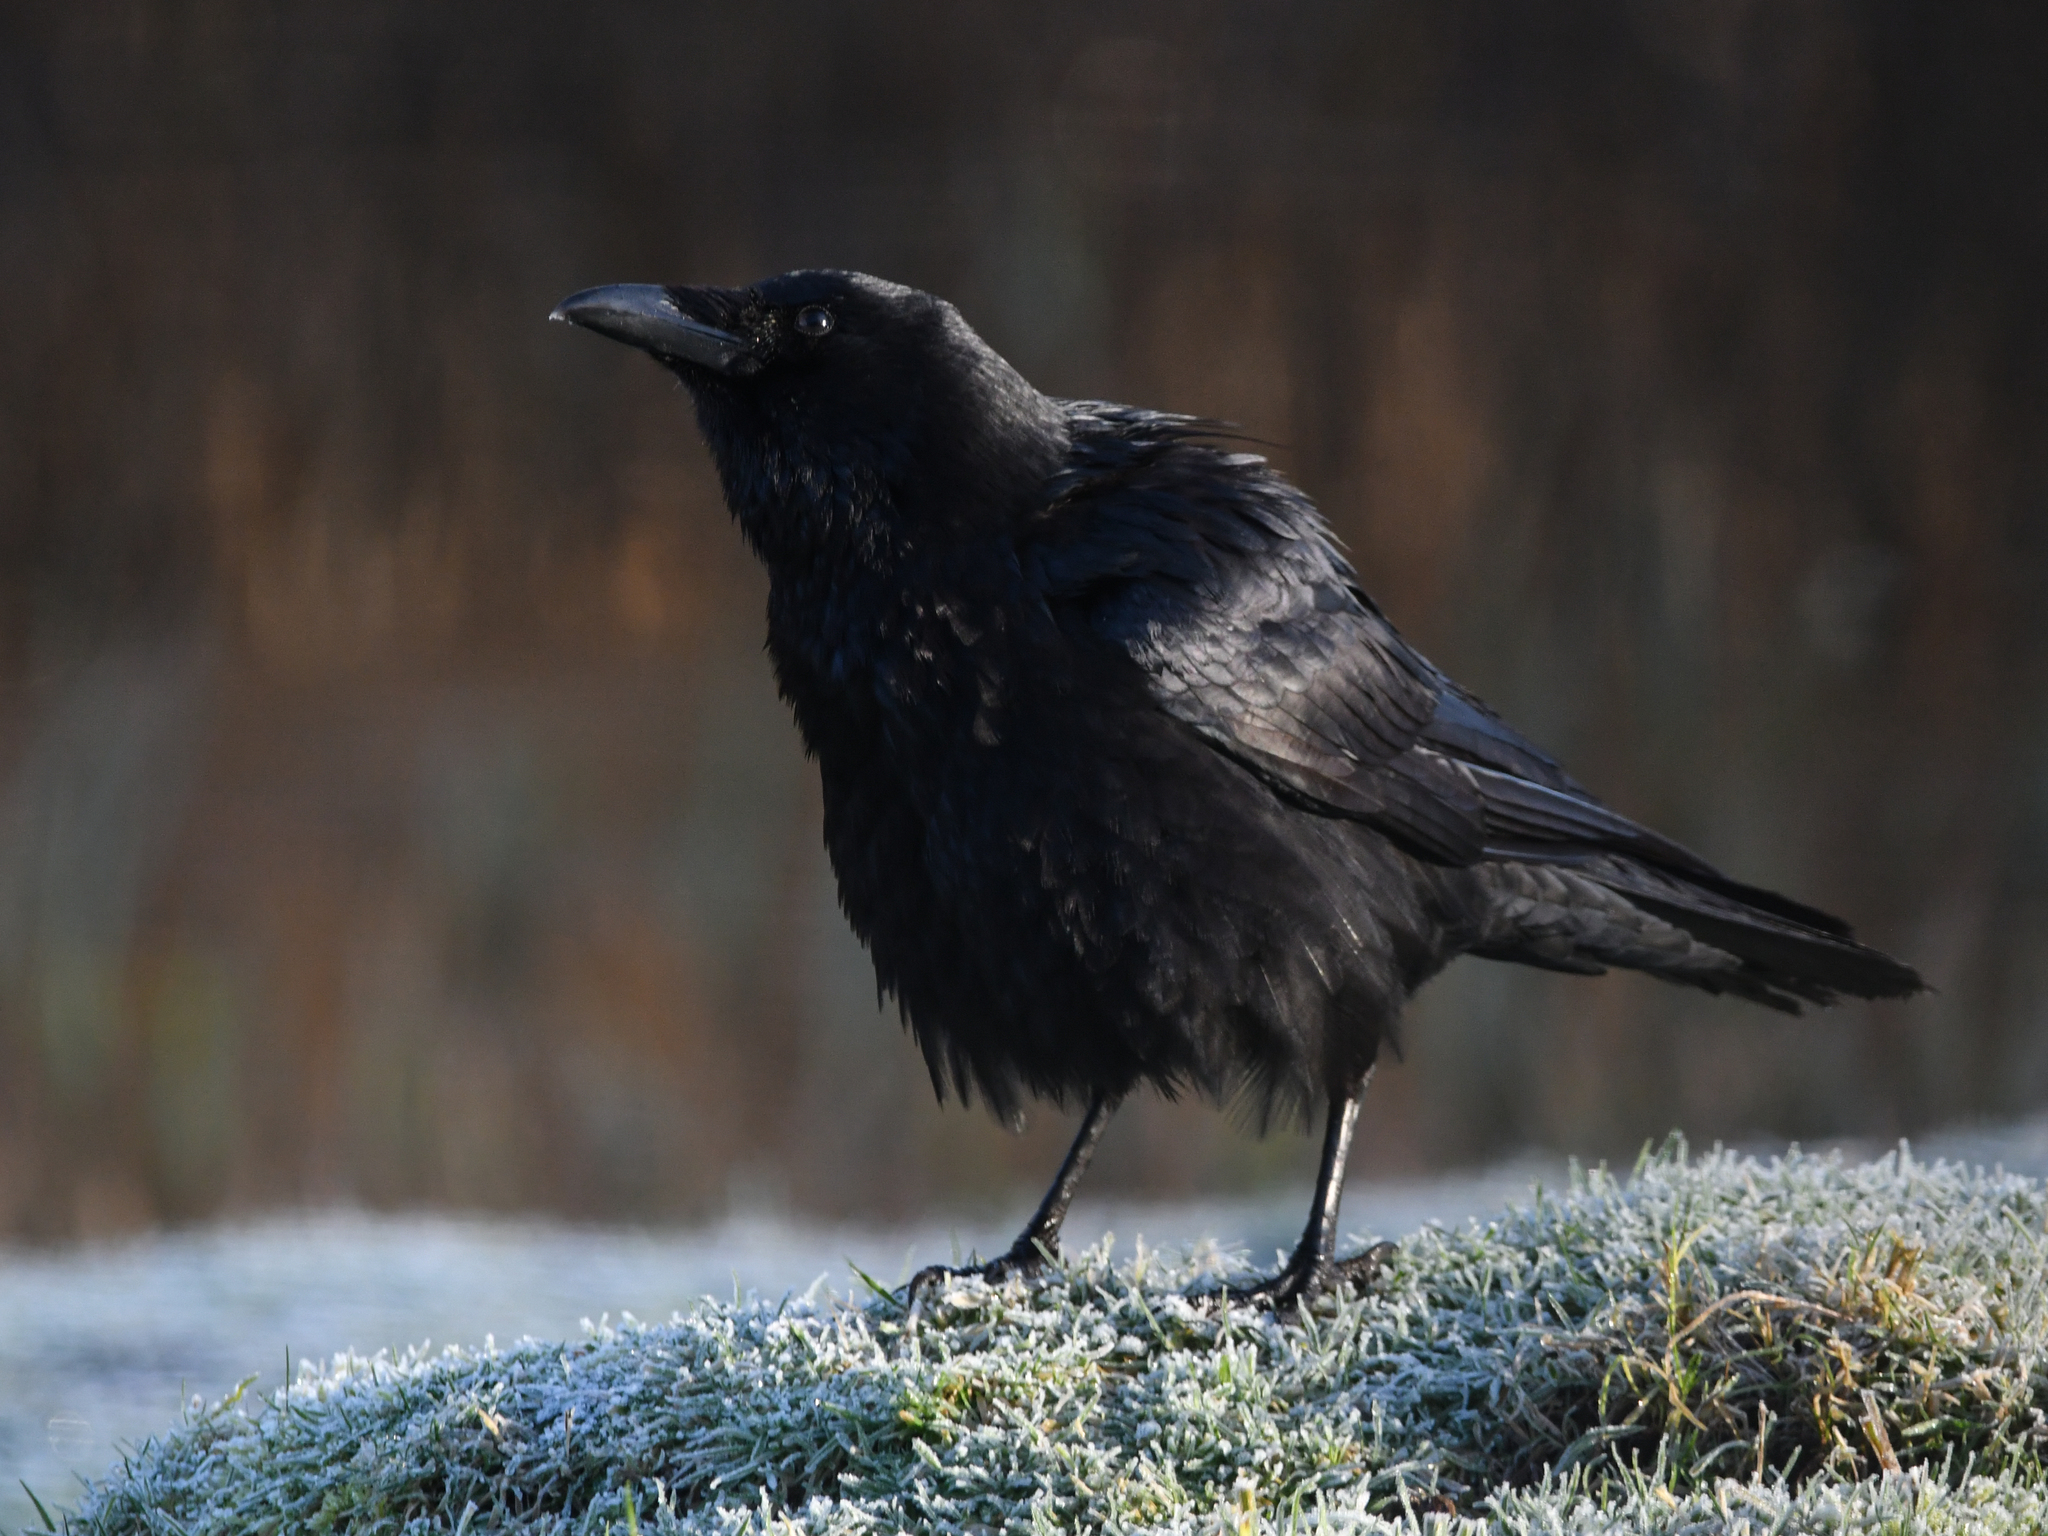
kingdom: Animalia
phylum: Chordata
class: Aves
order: Passeriformes
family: Corvidae
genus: Corvus
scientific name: Corvus corone
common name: Carrion crow
